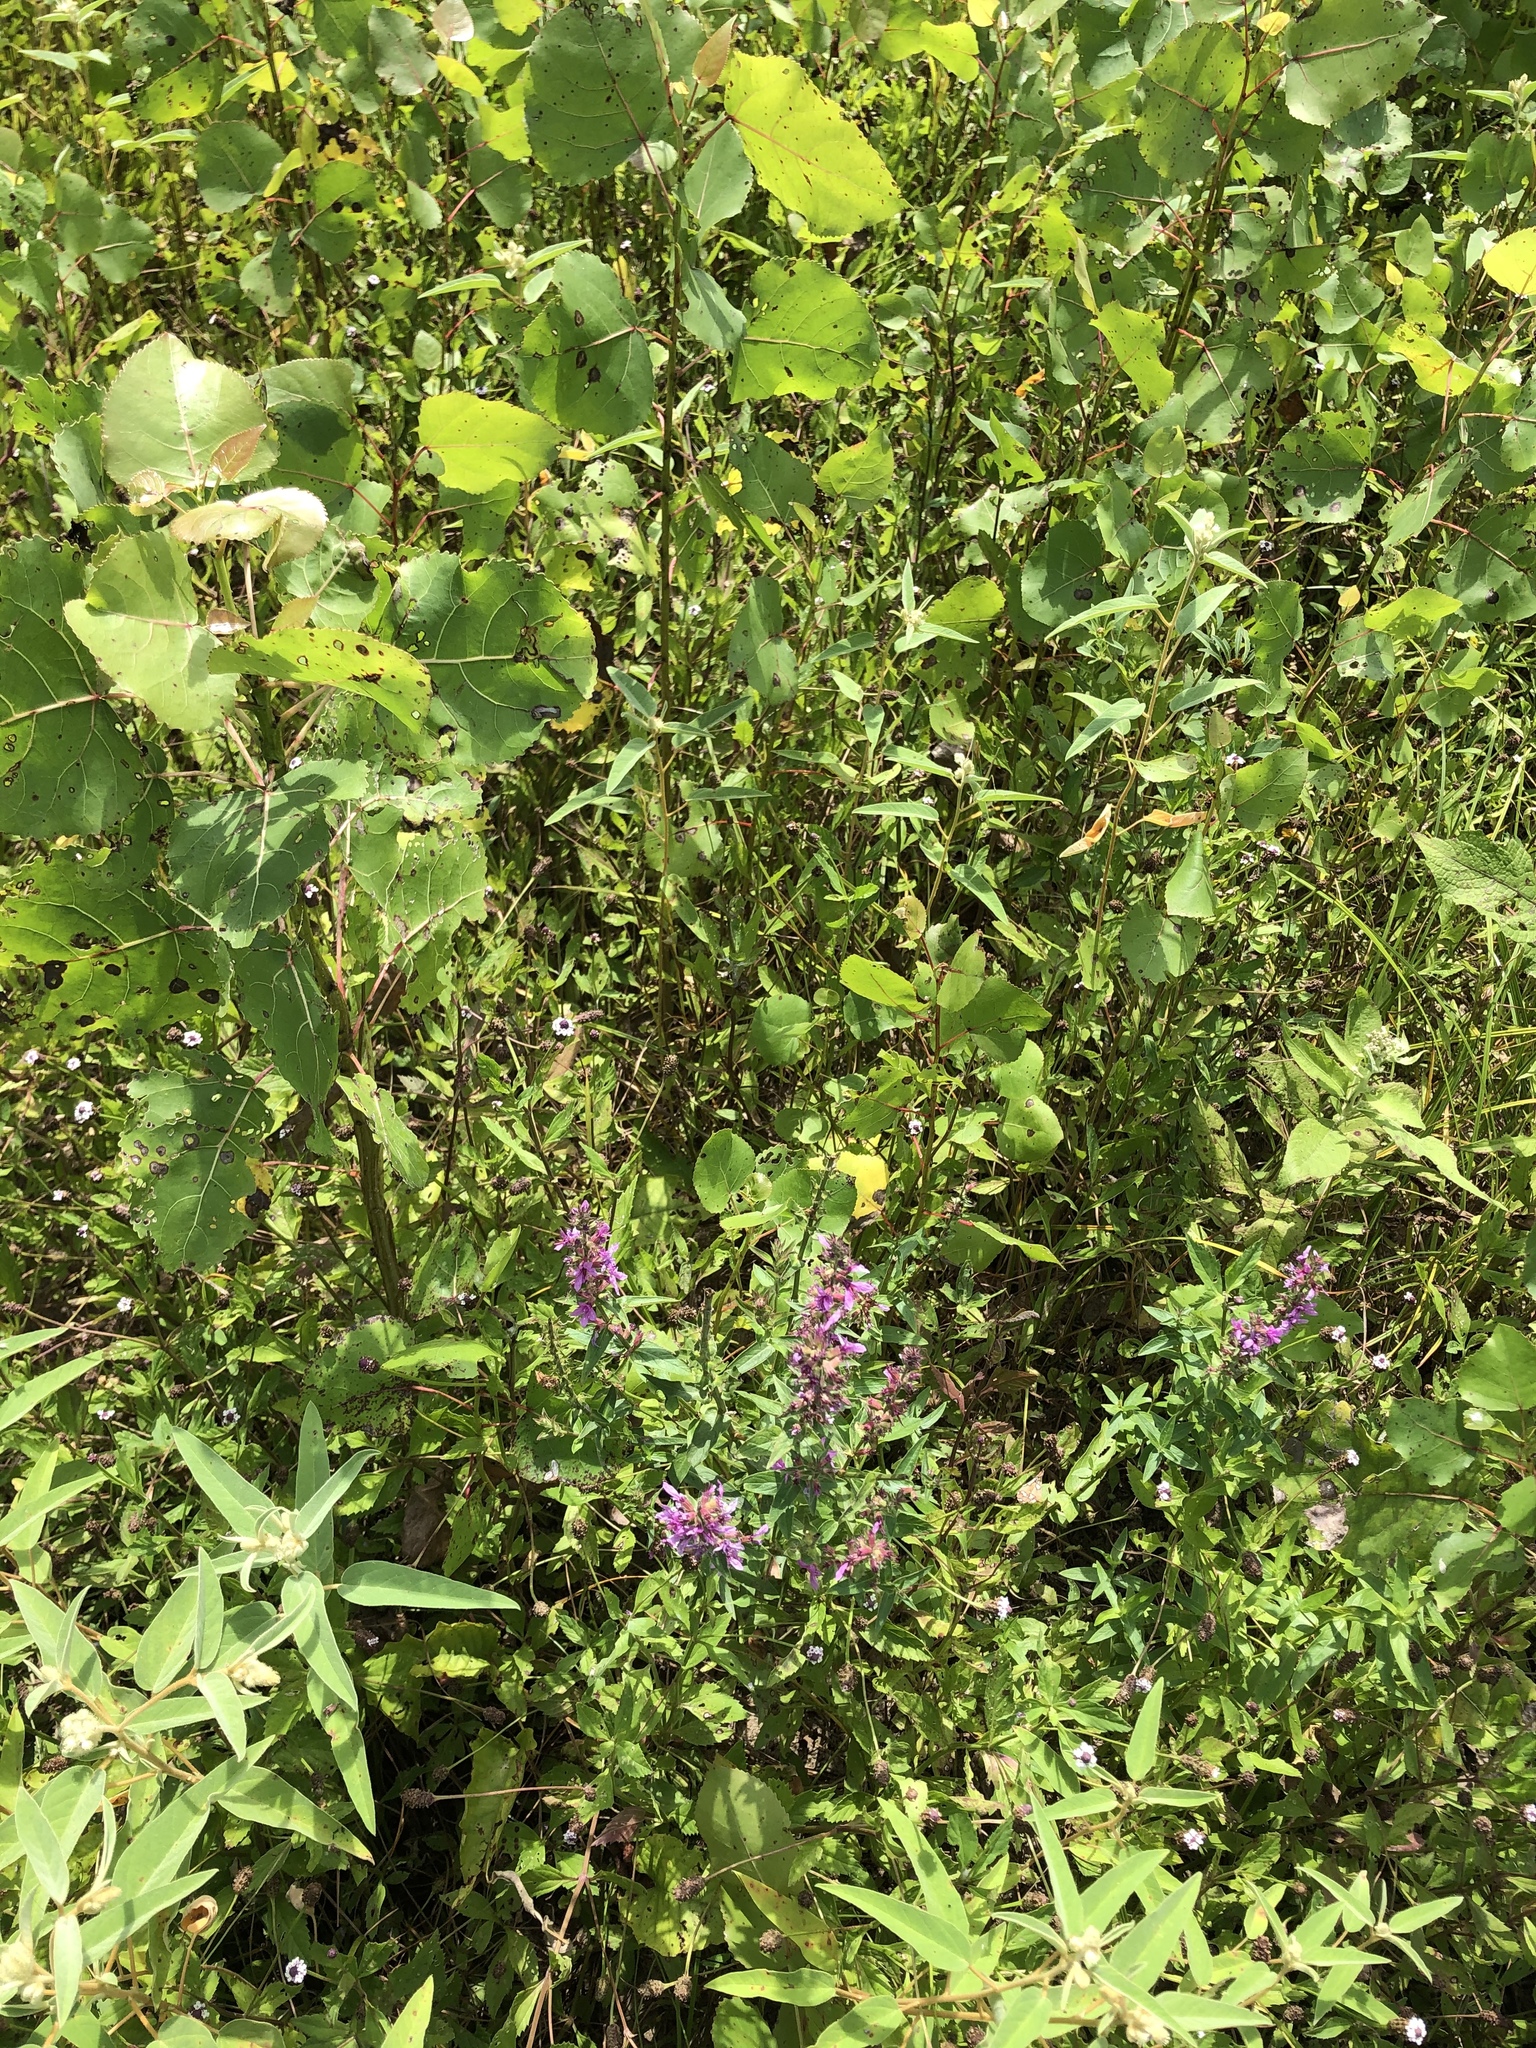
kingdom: Plantae
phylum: Tracheophyta
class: Magnoliopsida
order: Myrtales
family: Lythraceae
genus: Lythrum
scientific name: Lythrum salicaria
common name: Purple loosestrife
